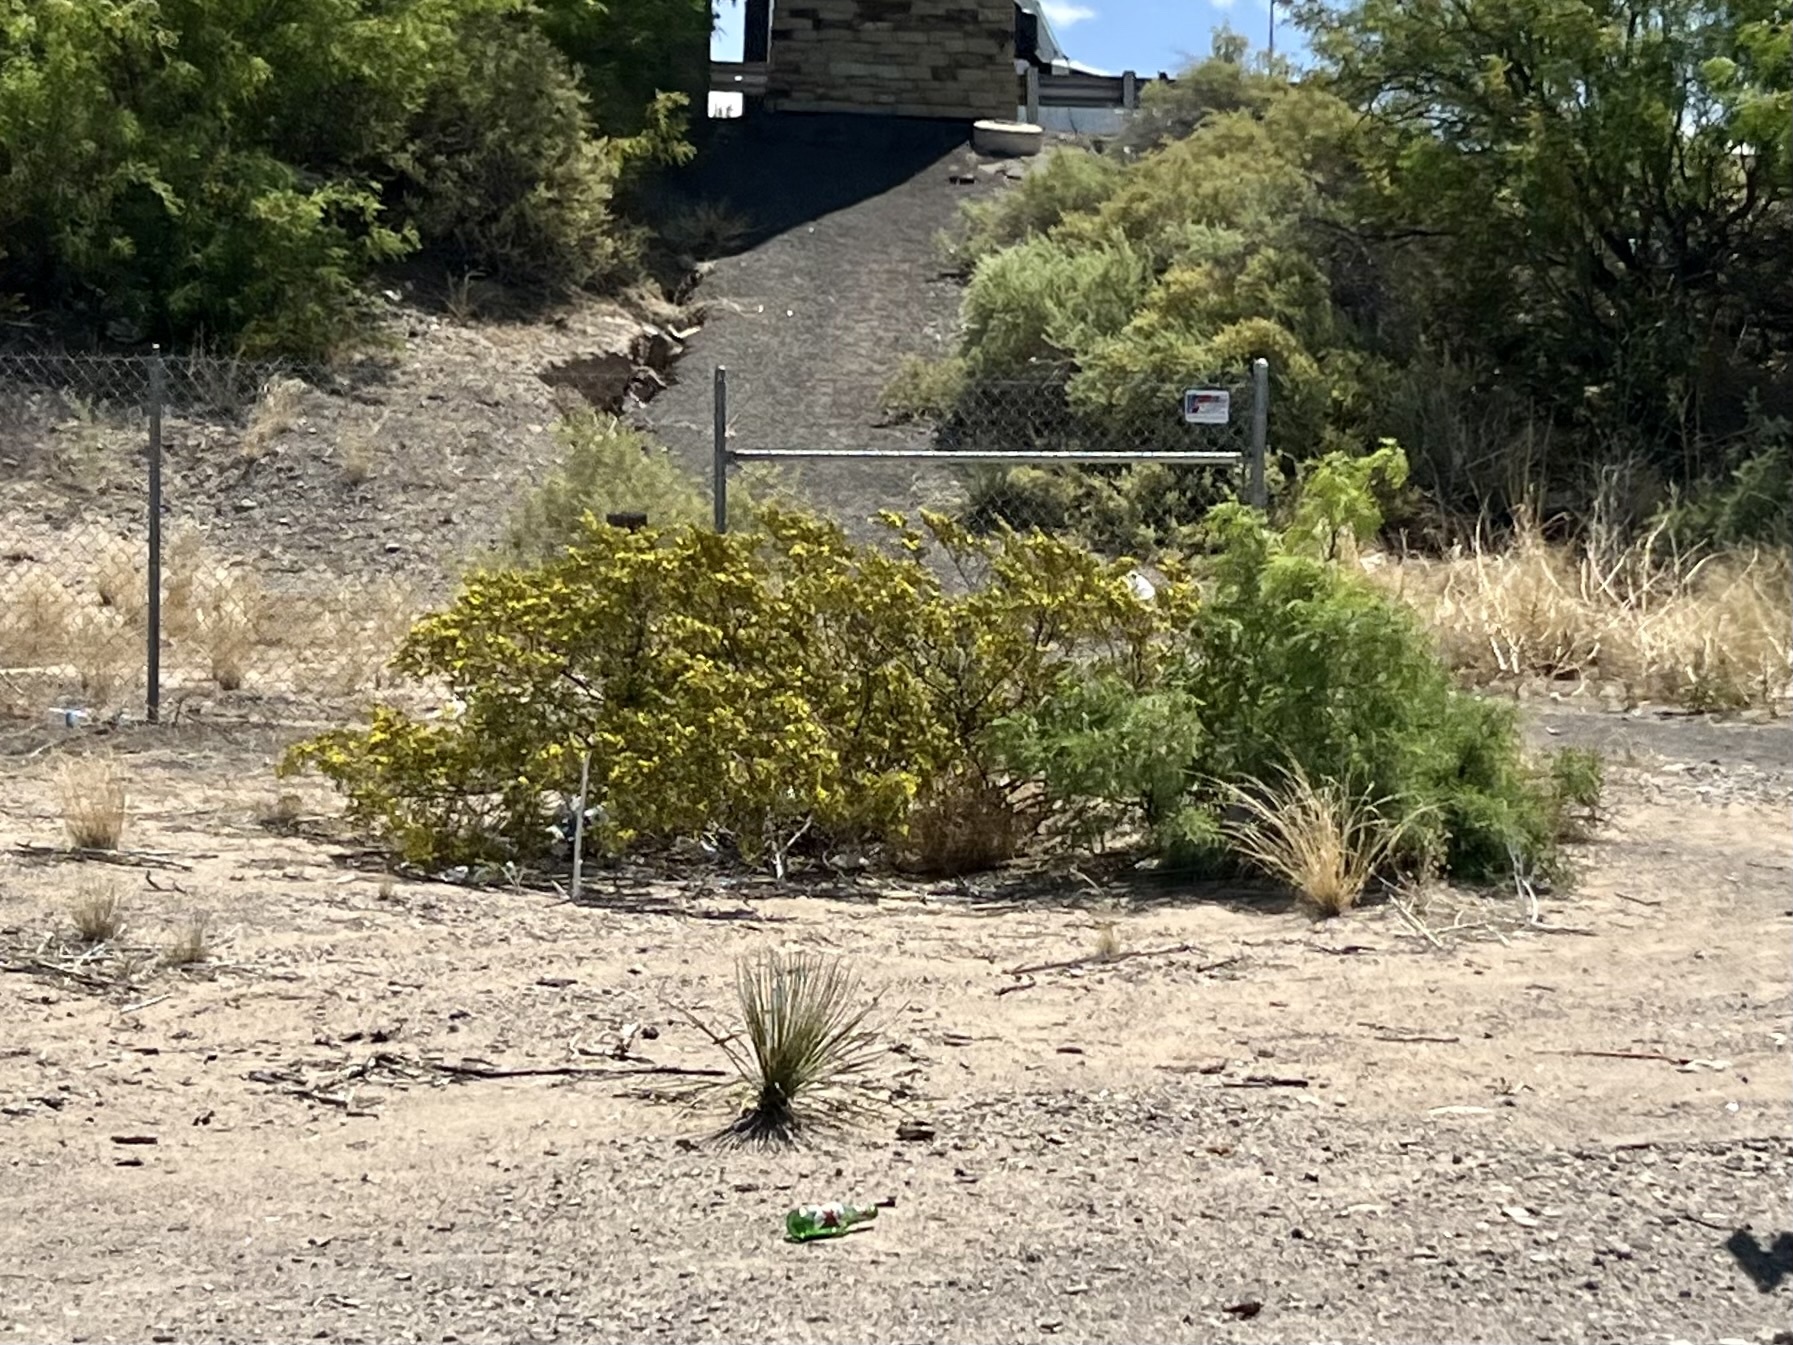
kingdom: Plantae
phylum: Tracheophyta
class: Magnoliopsida
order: Zygophyllales
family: Zygophyllaceae
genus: Larrea
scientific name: Larrea tridentata
